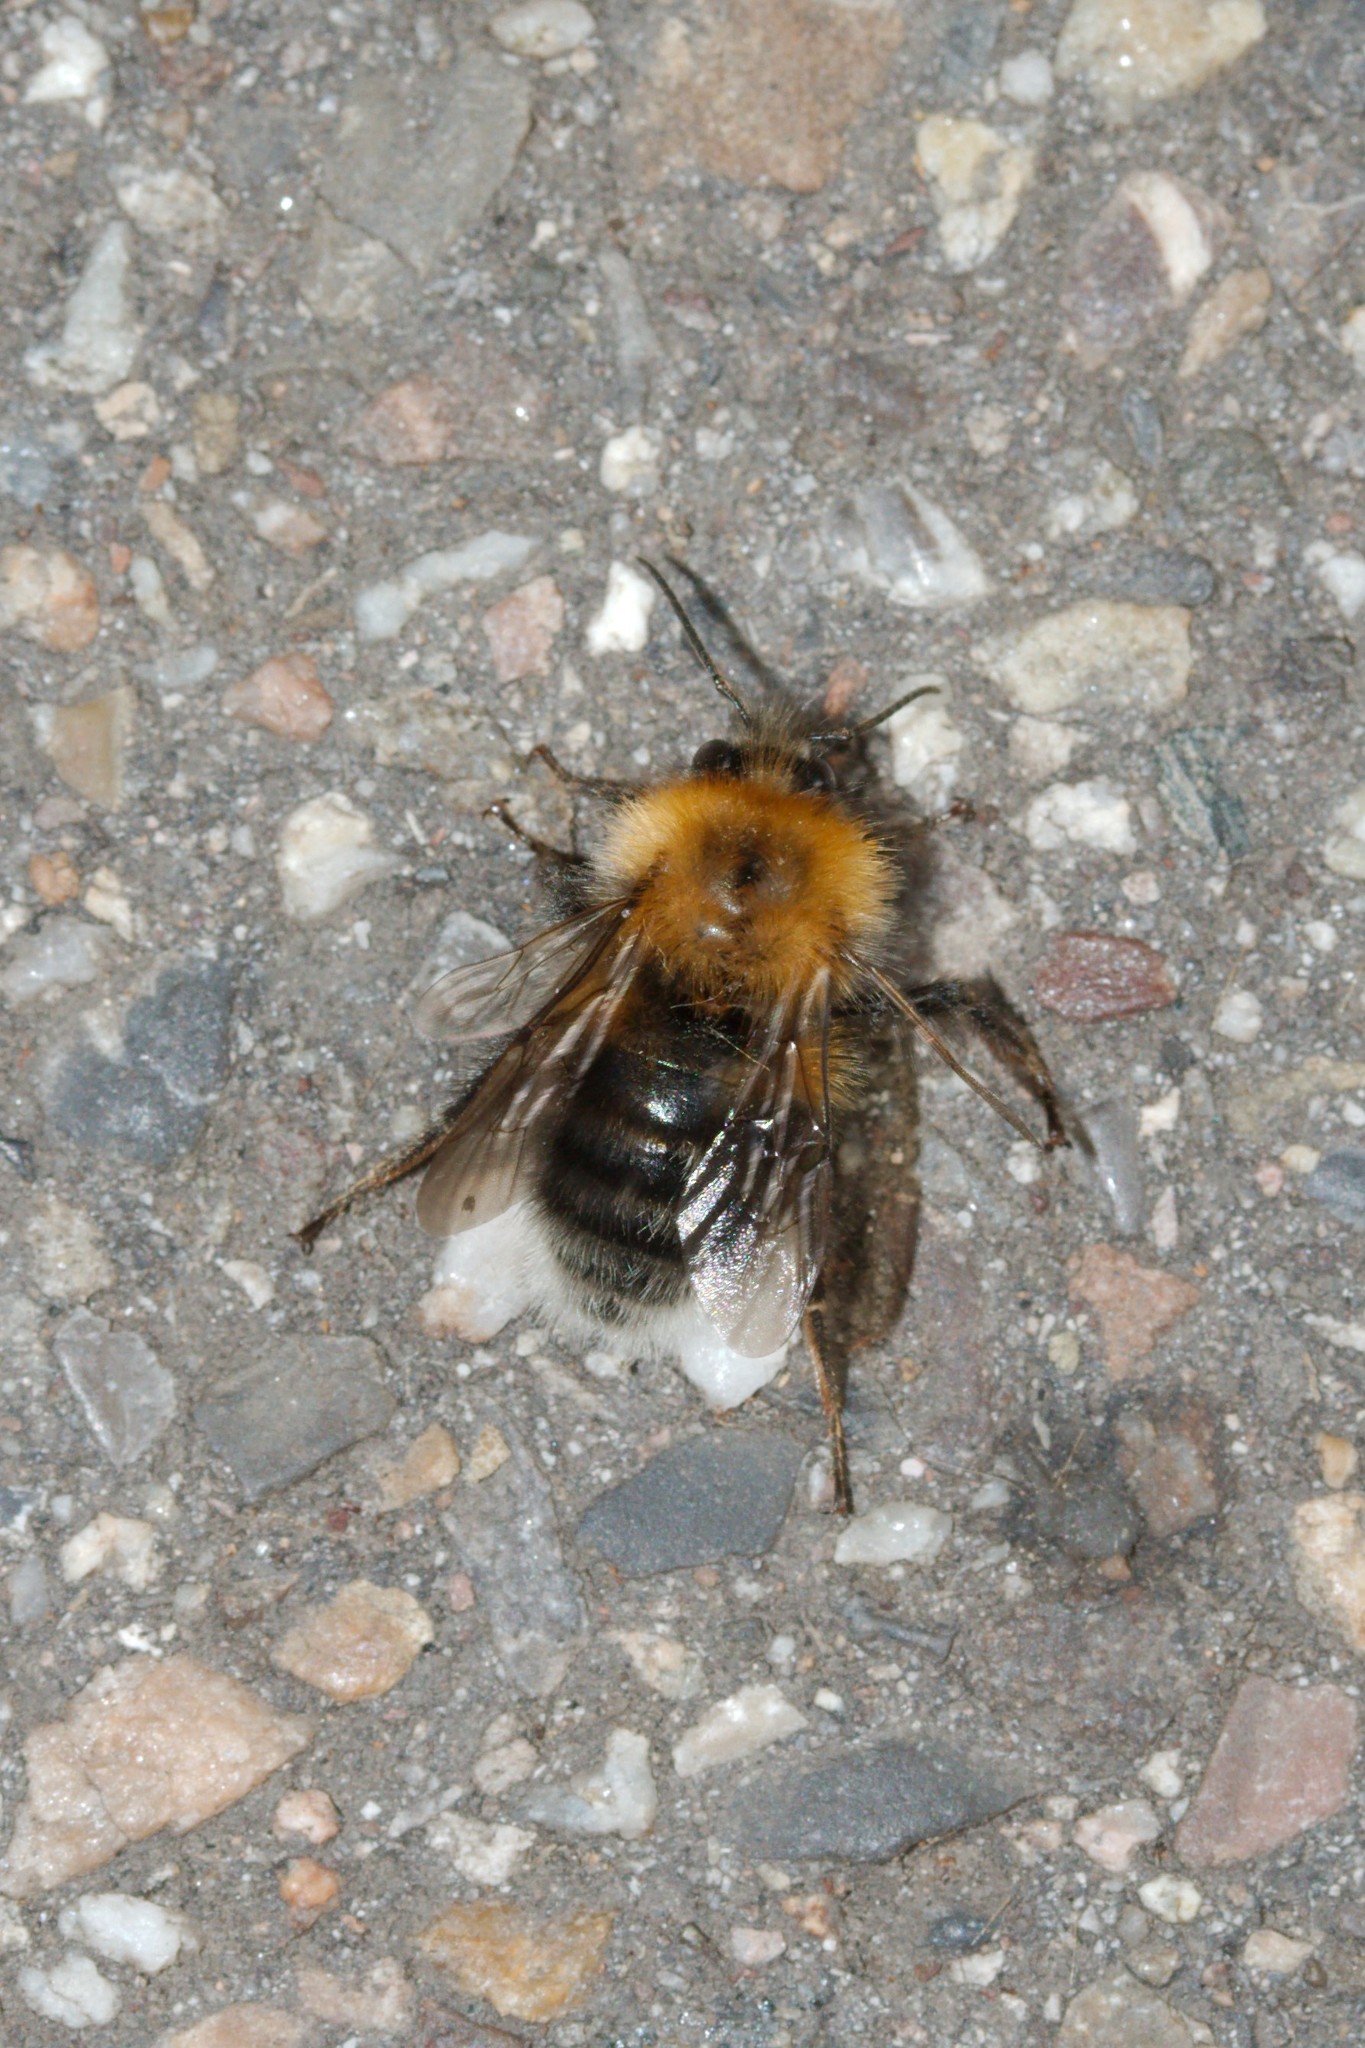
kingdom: Animalia
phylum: Arthropoda
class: Insecta
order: Hymenoptera
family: Apidae
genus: Bombus
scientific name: Bombus hypnorum
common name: New garden bumblebee
